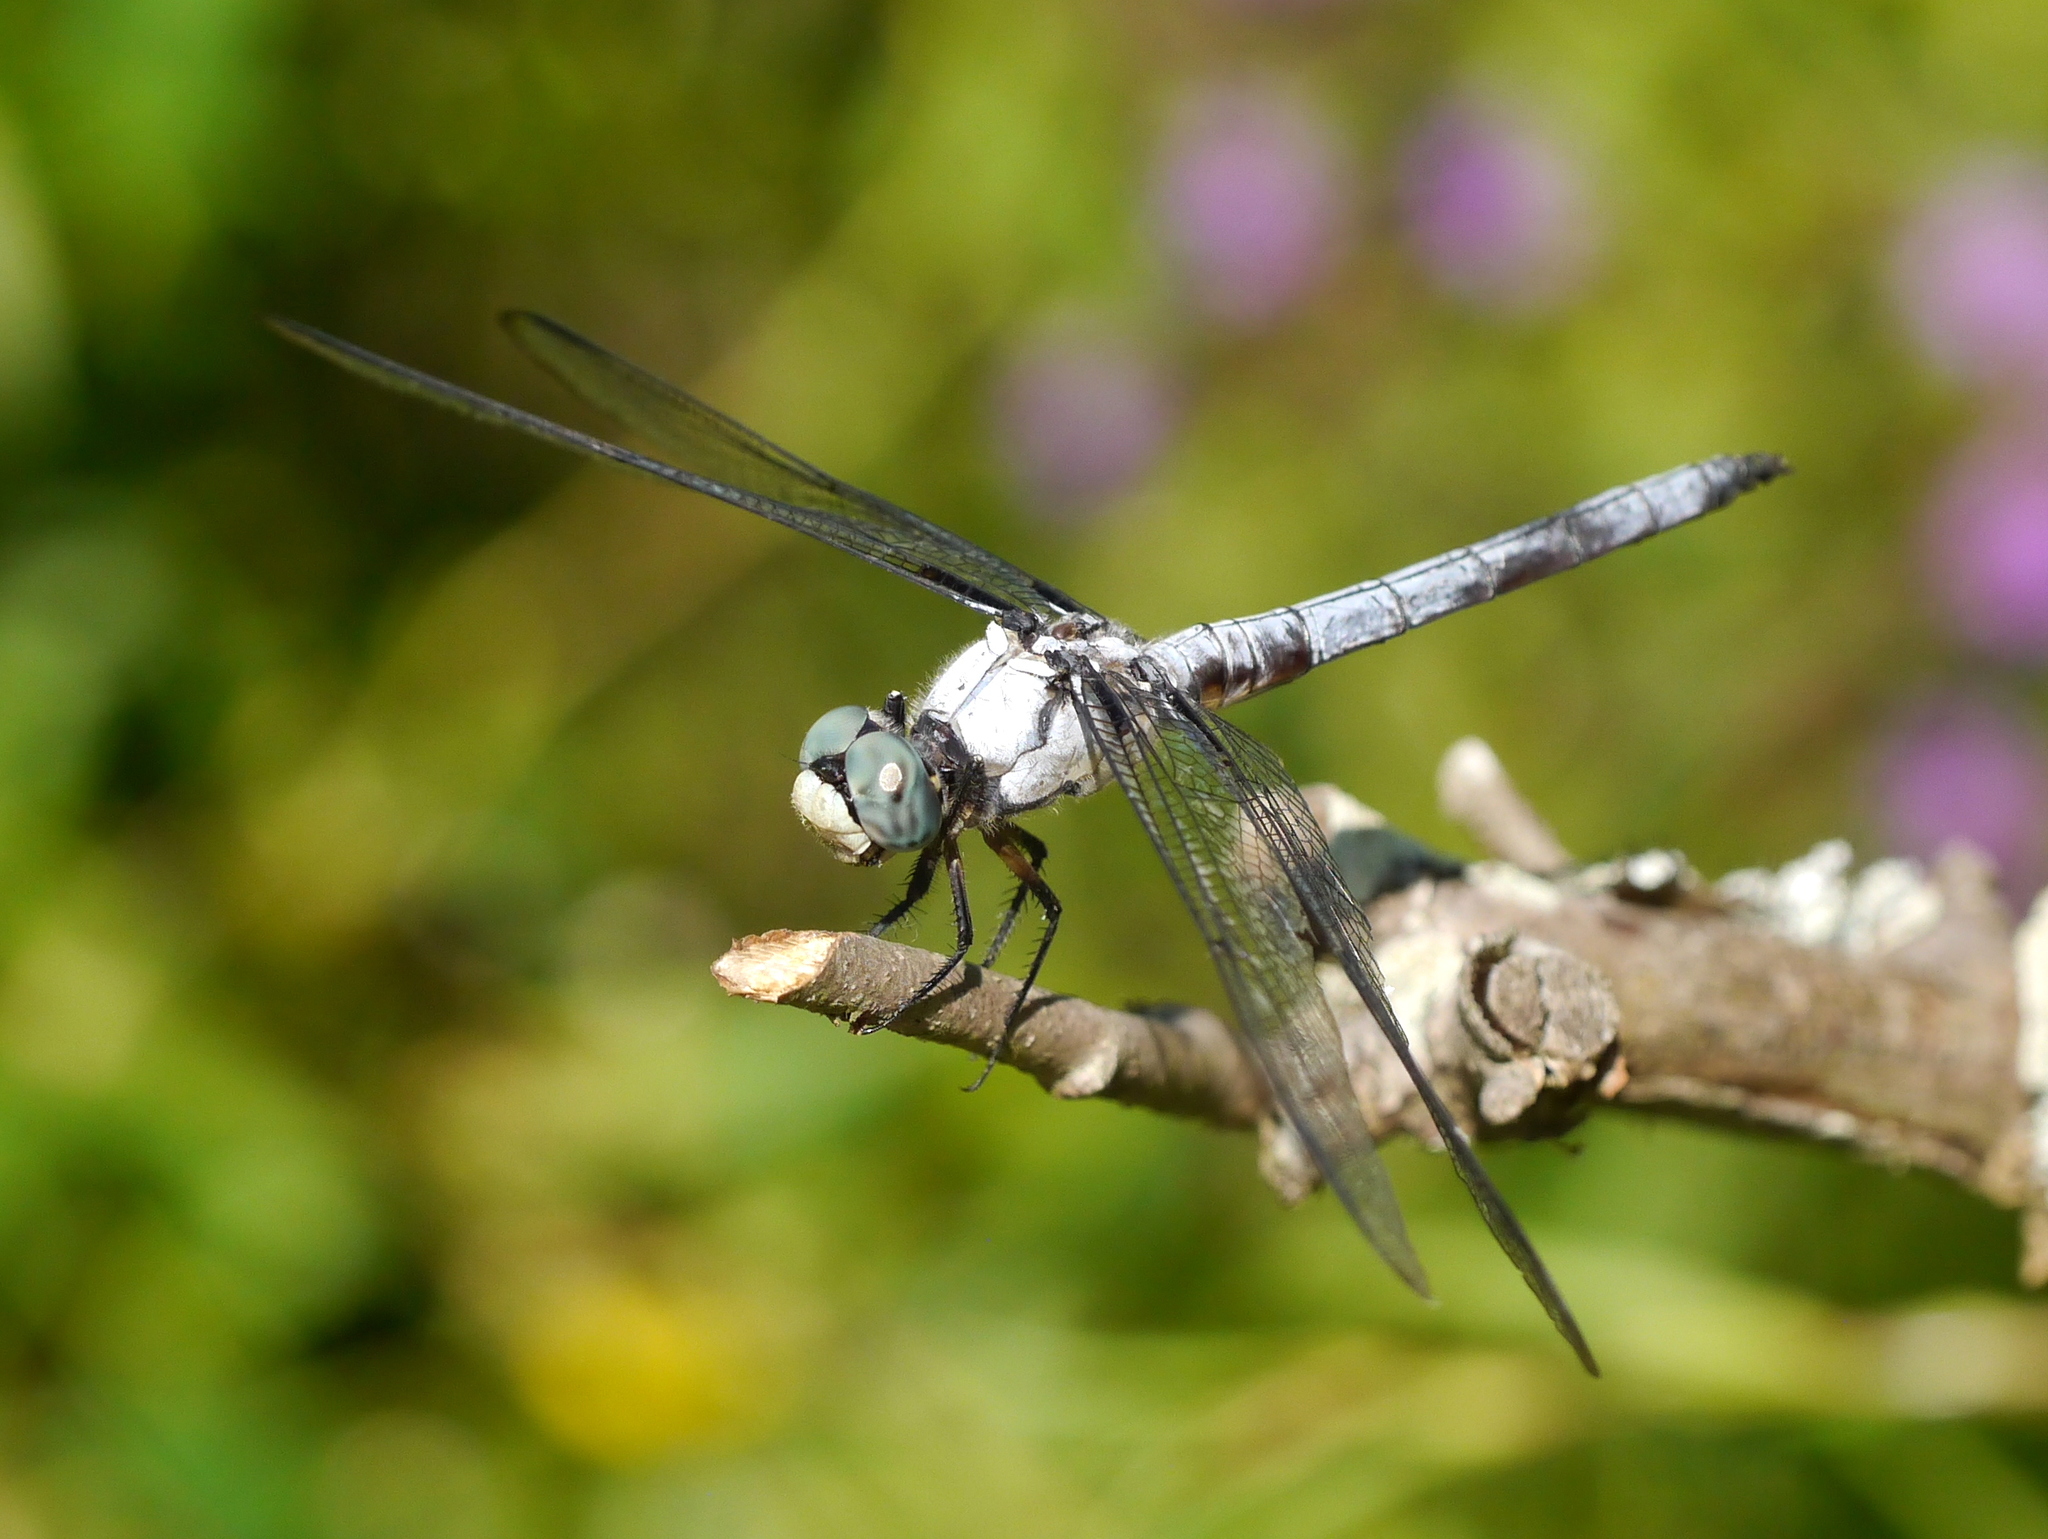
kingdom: Animalia
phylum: Arthropoda
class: Insecta
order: Odonata
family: Libellulidae
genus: Libellula
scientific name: Libellula vibrans
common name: Great blue skimmer
